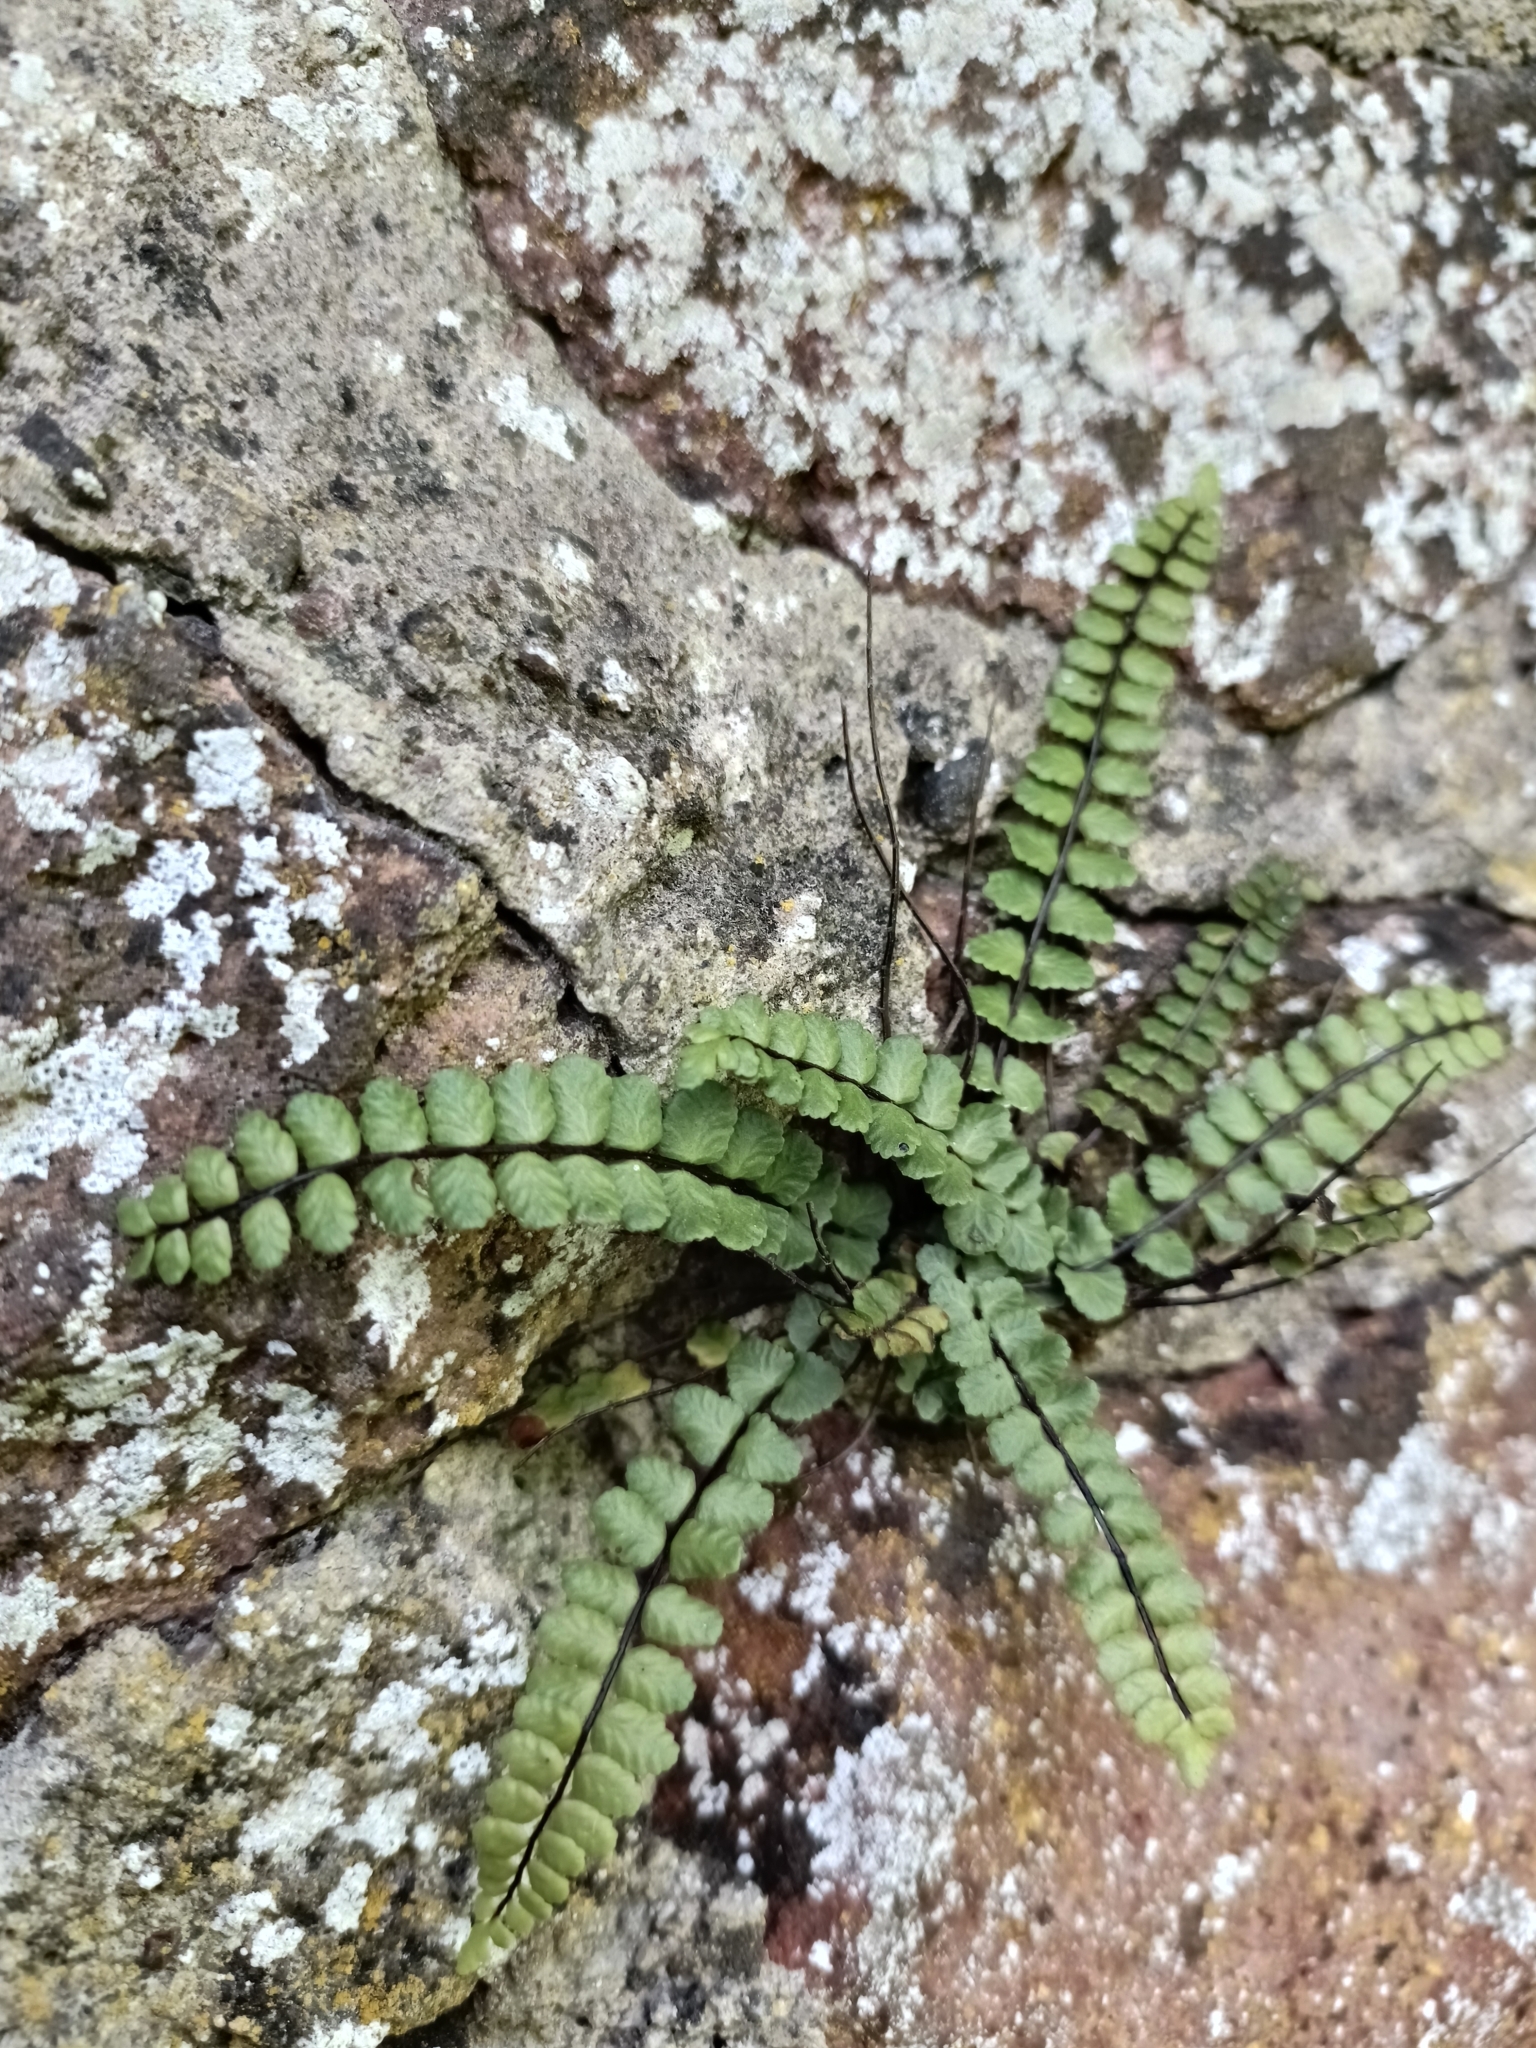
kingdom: Plantae
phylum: Tracheophyta
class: Polypodiopsida
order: Polypodiales
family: Aspleniaceae
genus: Asplenium
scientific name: Asplenium trichomanes
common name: Maidenhair spleenwort
